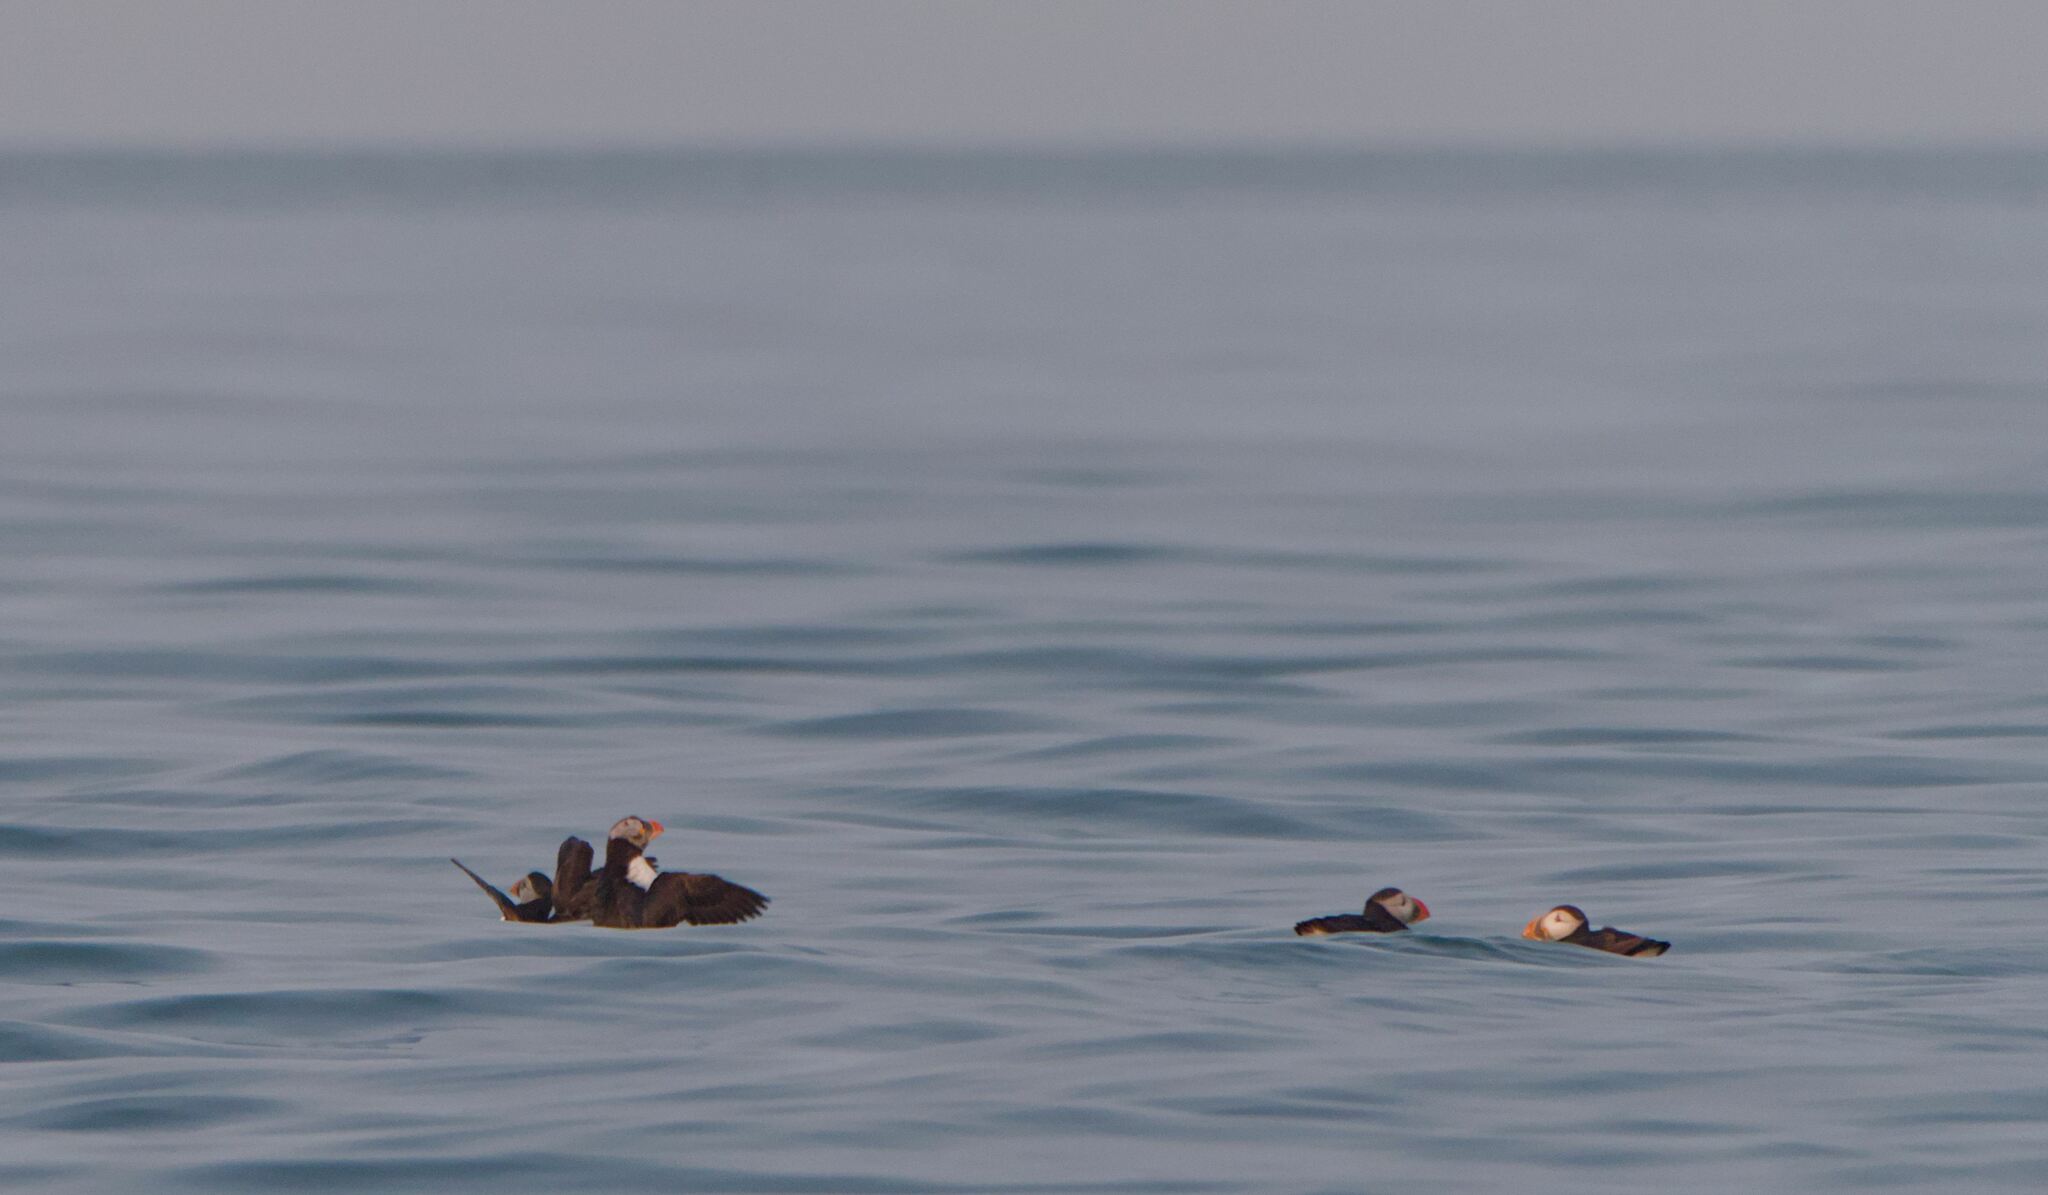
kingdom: Animalia
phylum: Chordata
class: Aves
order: Charadriiformes
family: Alcidae
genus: Fratercula
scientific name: Fratercula arctica
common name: Atlantic puffin
